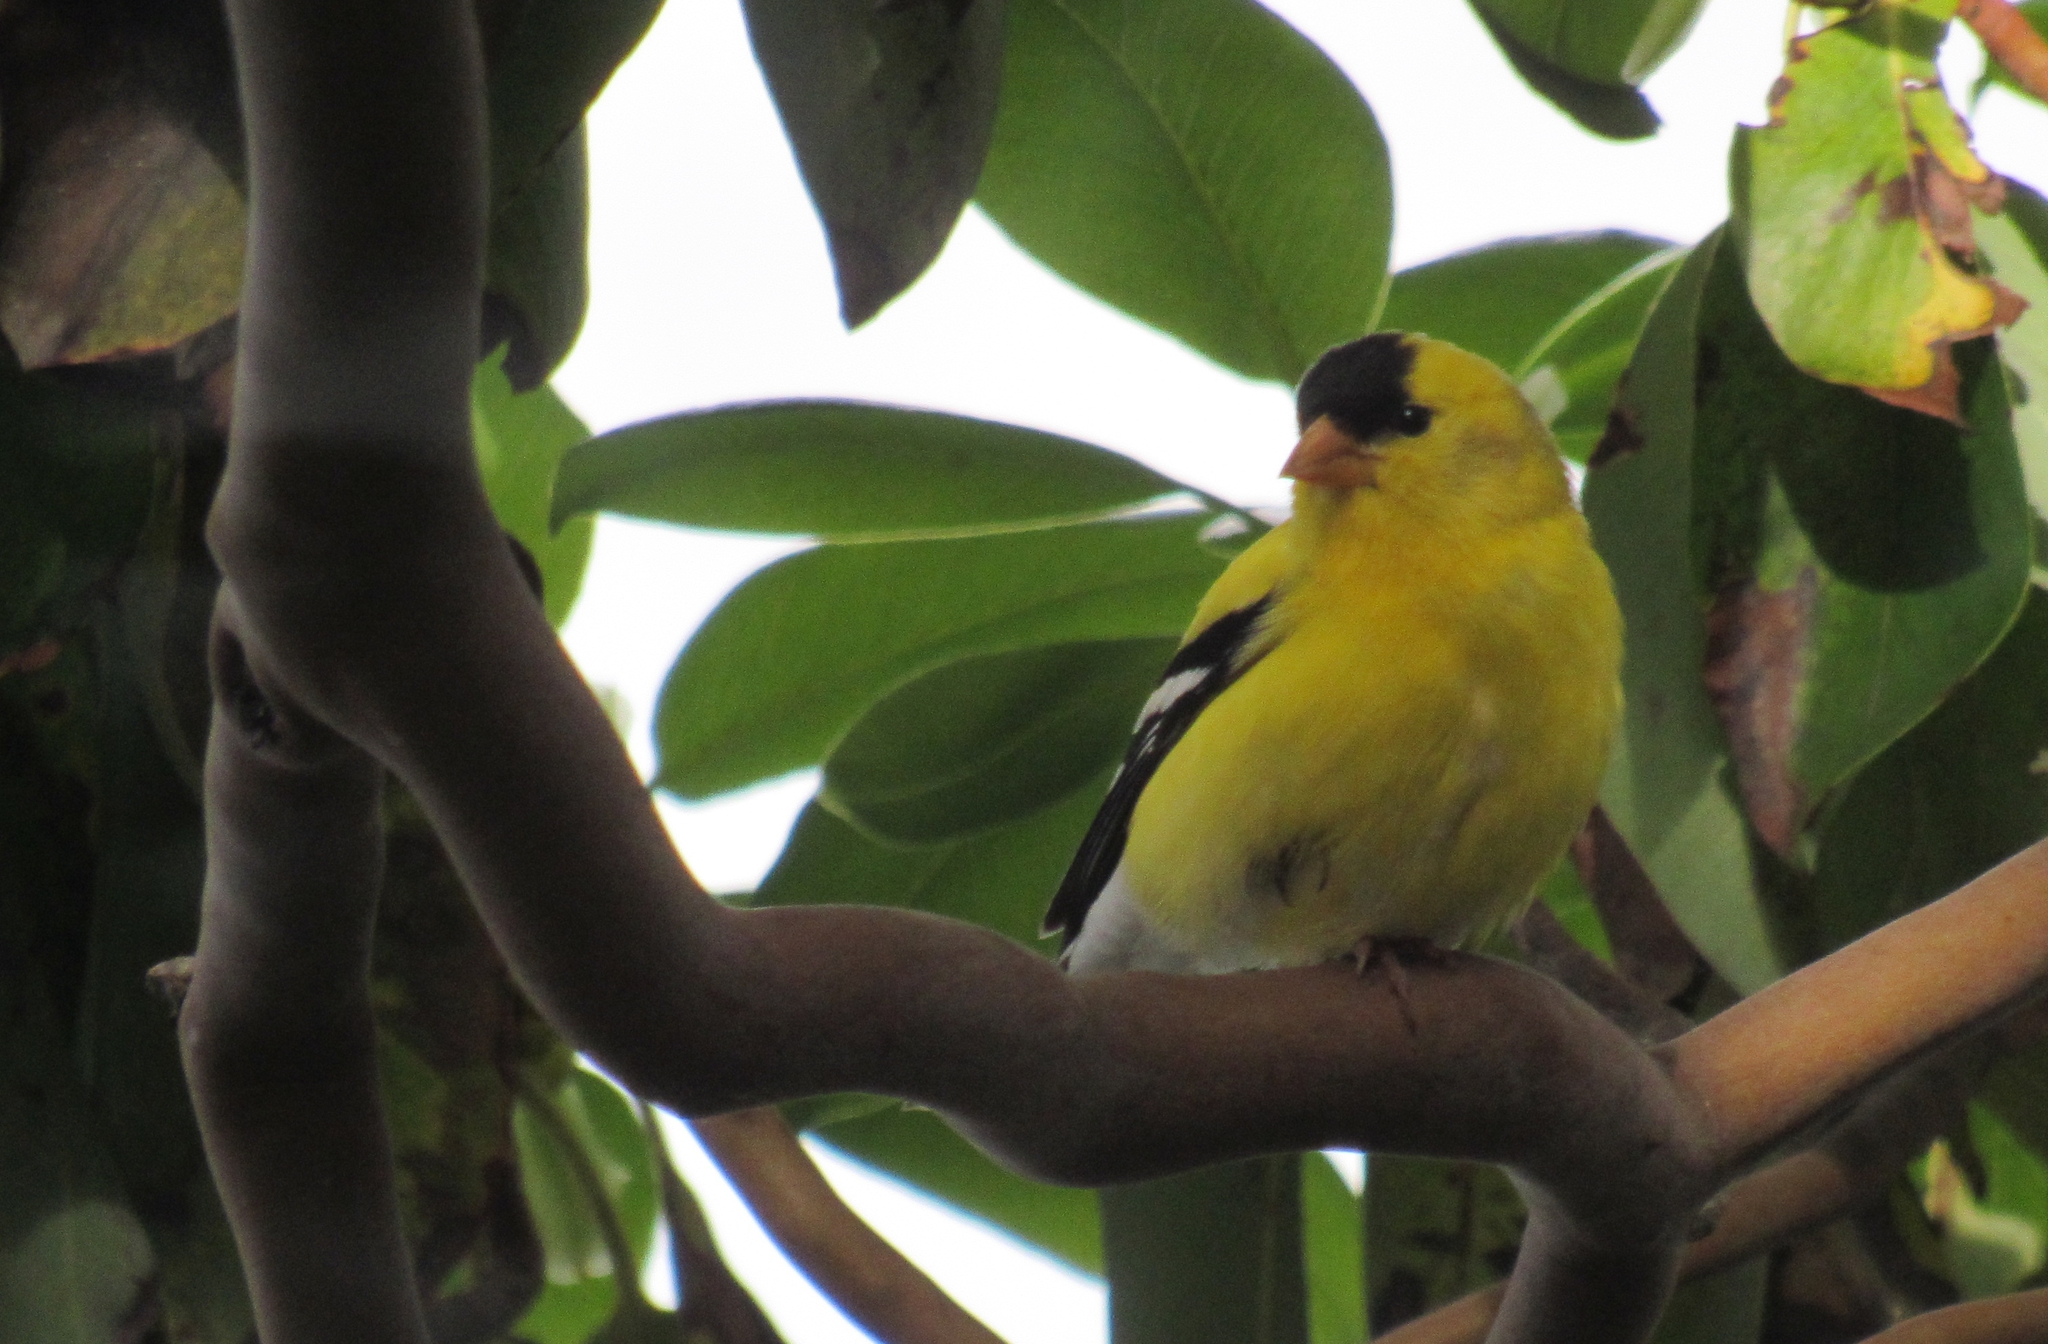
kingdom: Animalia
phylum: Chordata
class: Aves
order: Passeriformes
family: Fringillidae
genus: Spinus
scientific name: Spinus tristis
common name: American goldfinch
